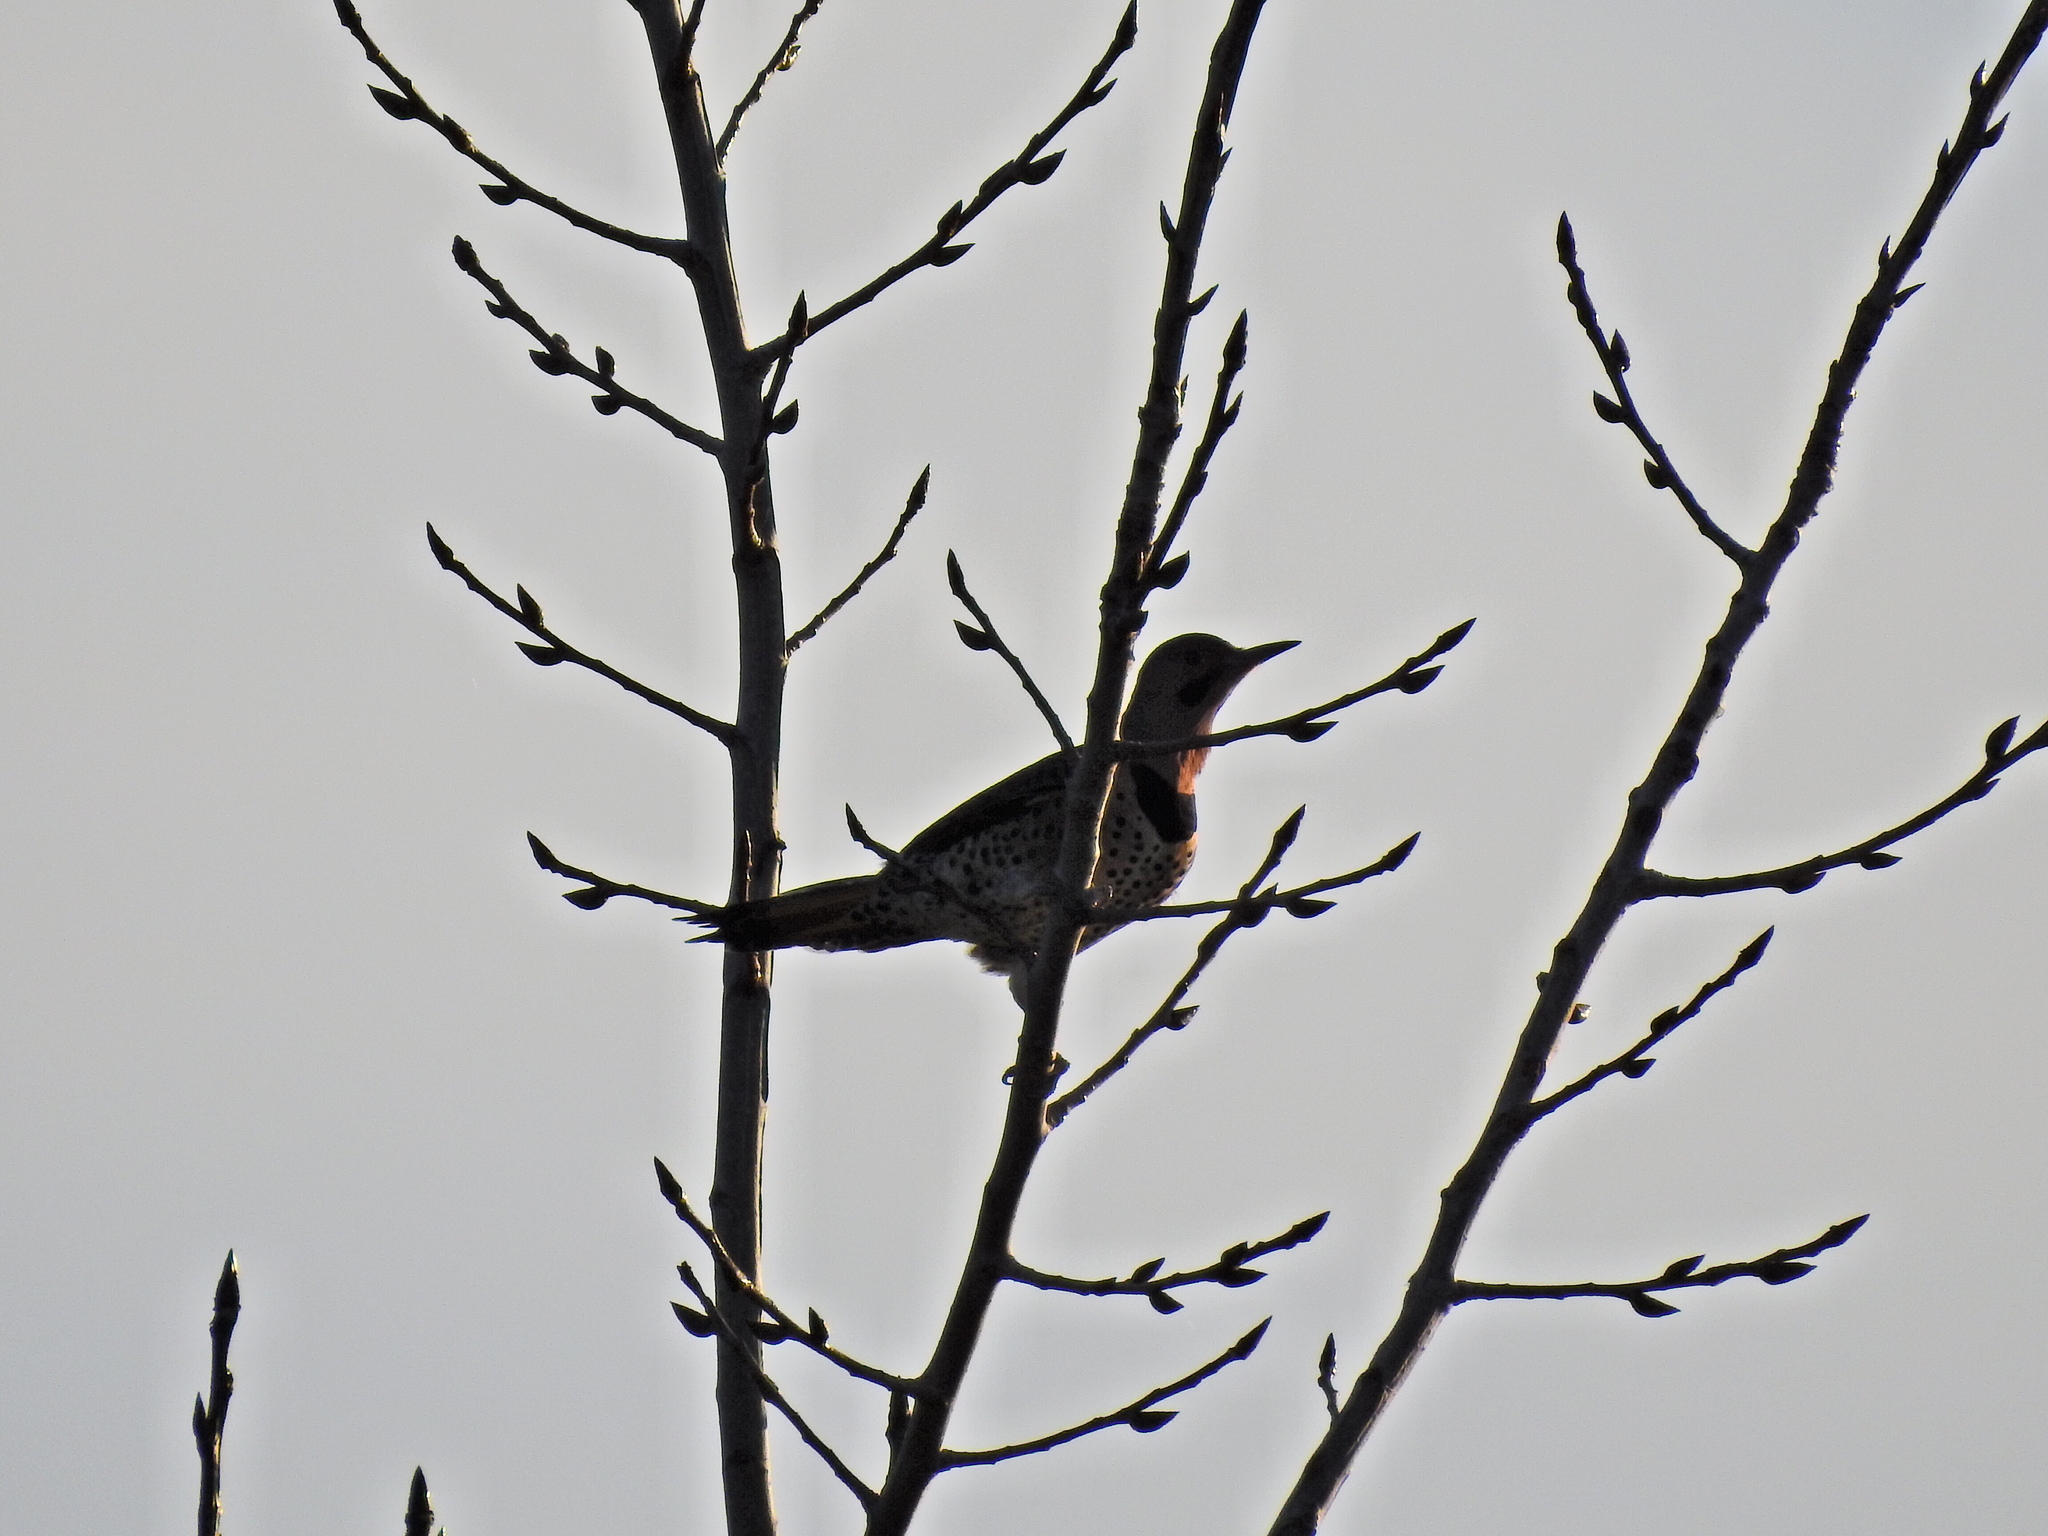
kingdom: Animalia
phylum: Chordata
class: Aves
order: Piciformes
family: Picidae
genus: Colaptes
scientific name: Colaptes auratus
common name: Northern flicker
